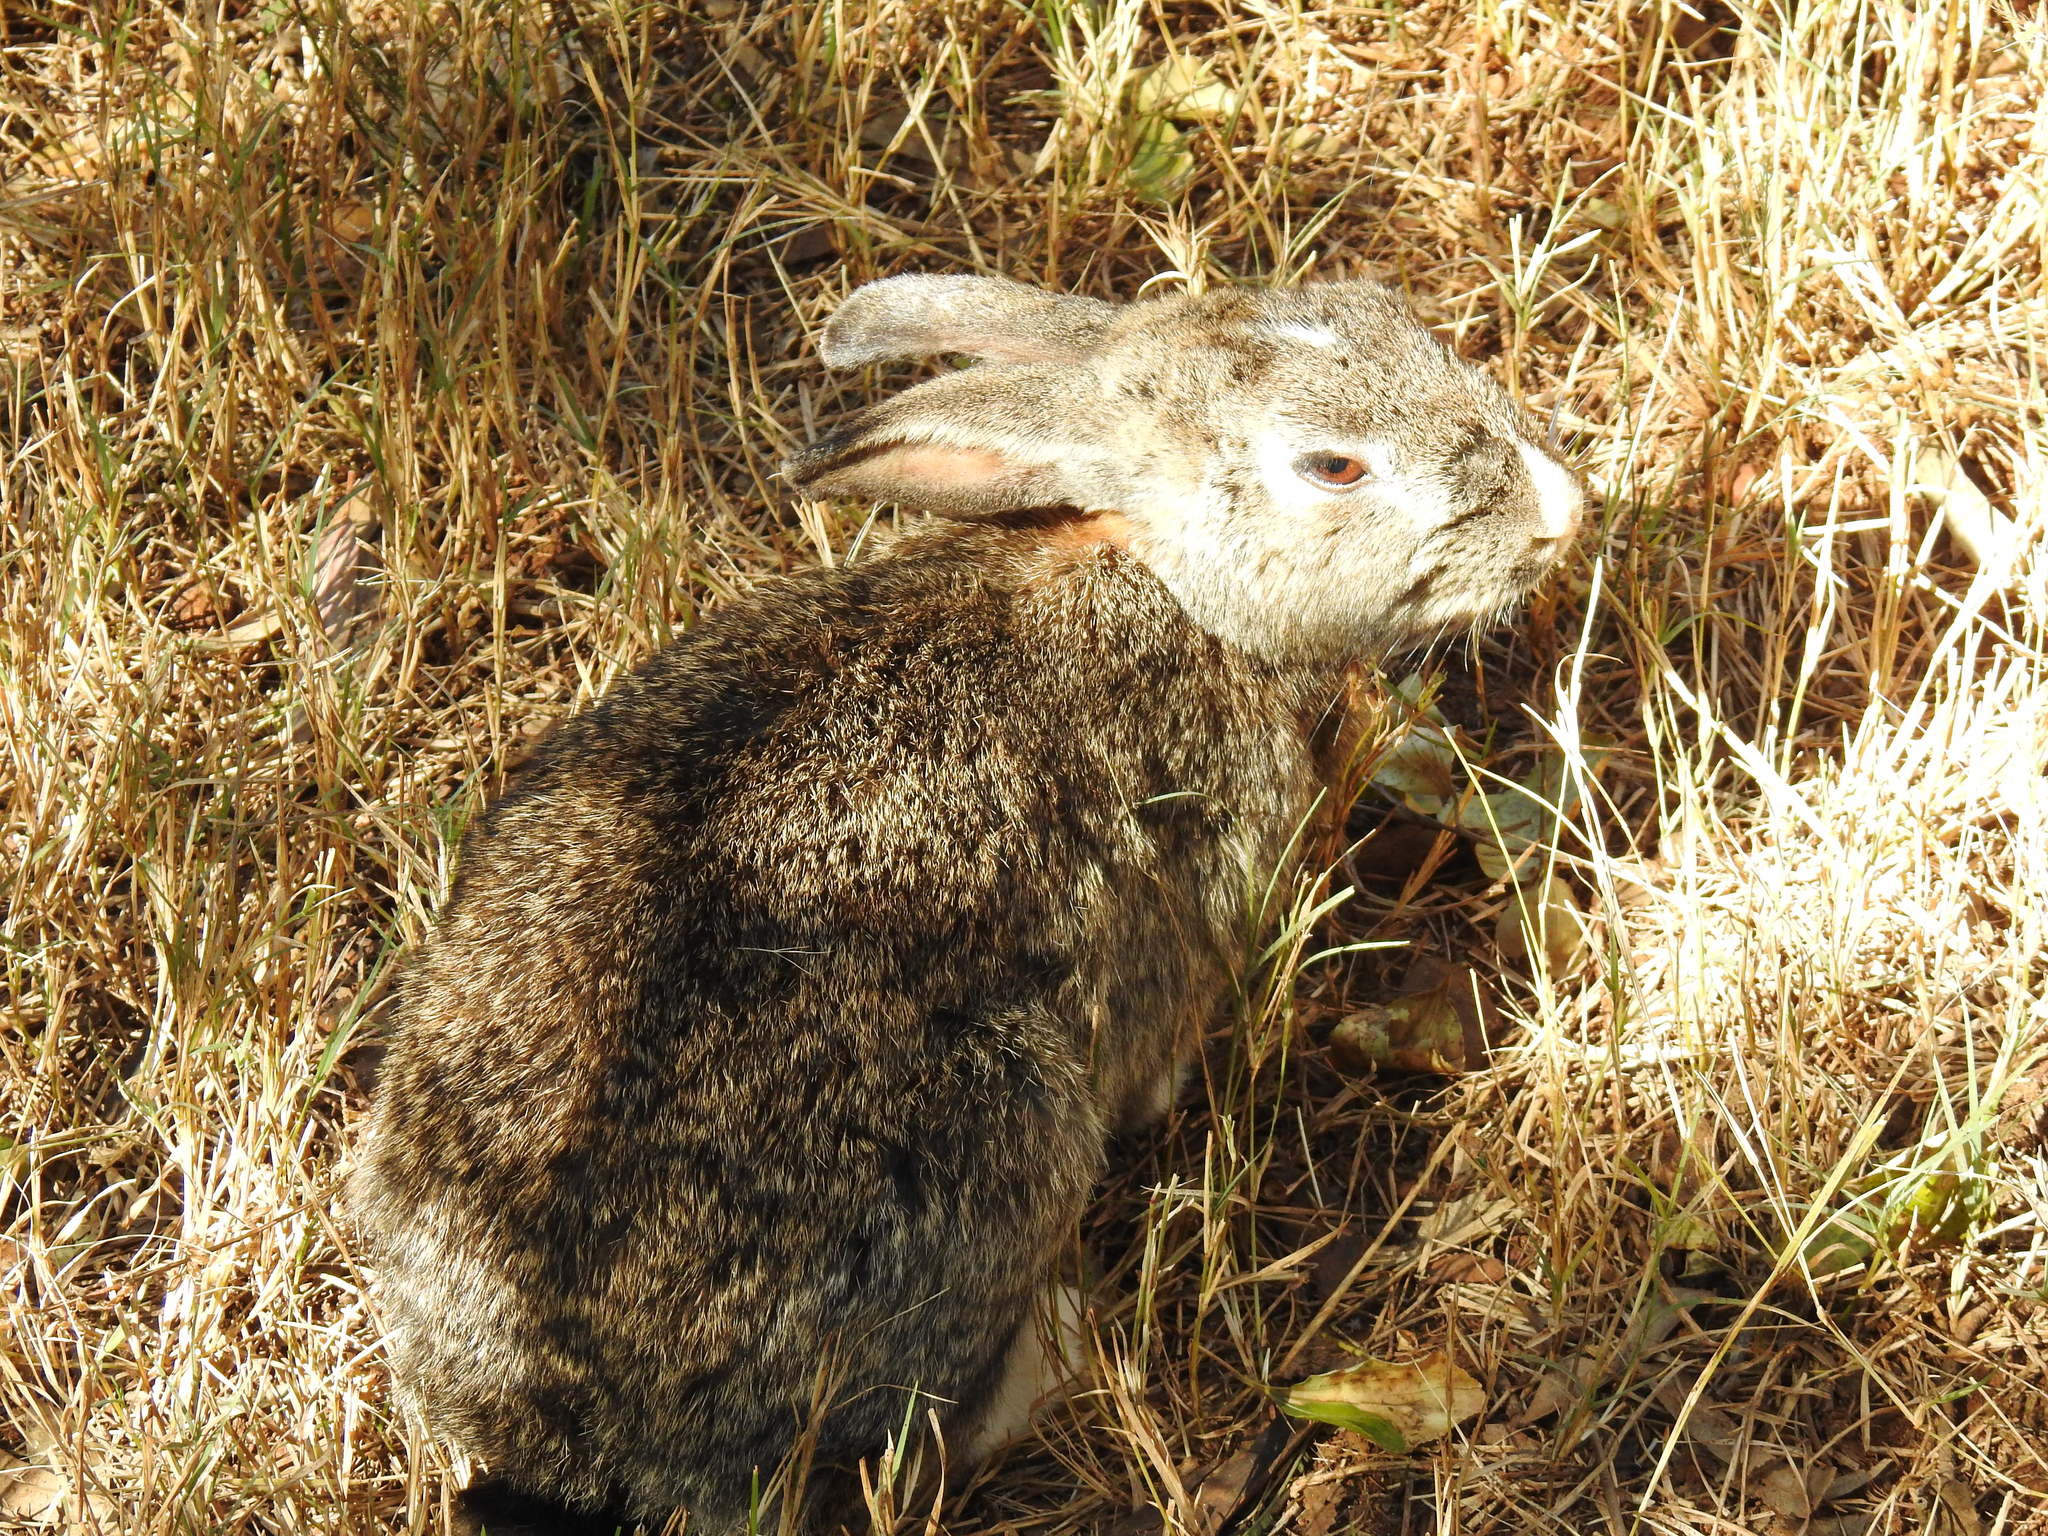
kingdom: Animalia
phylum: Chordata
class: Mammalia
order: Lagomorpha
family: Leporidae
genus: Oryctolagus
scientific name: Oryctolagus cuniculus
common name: European rabbit
